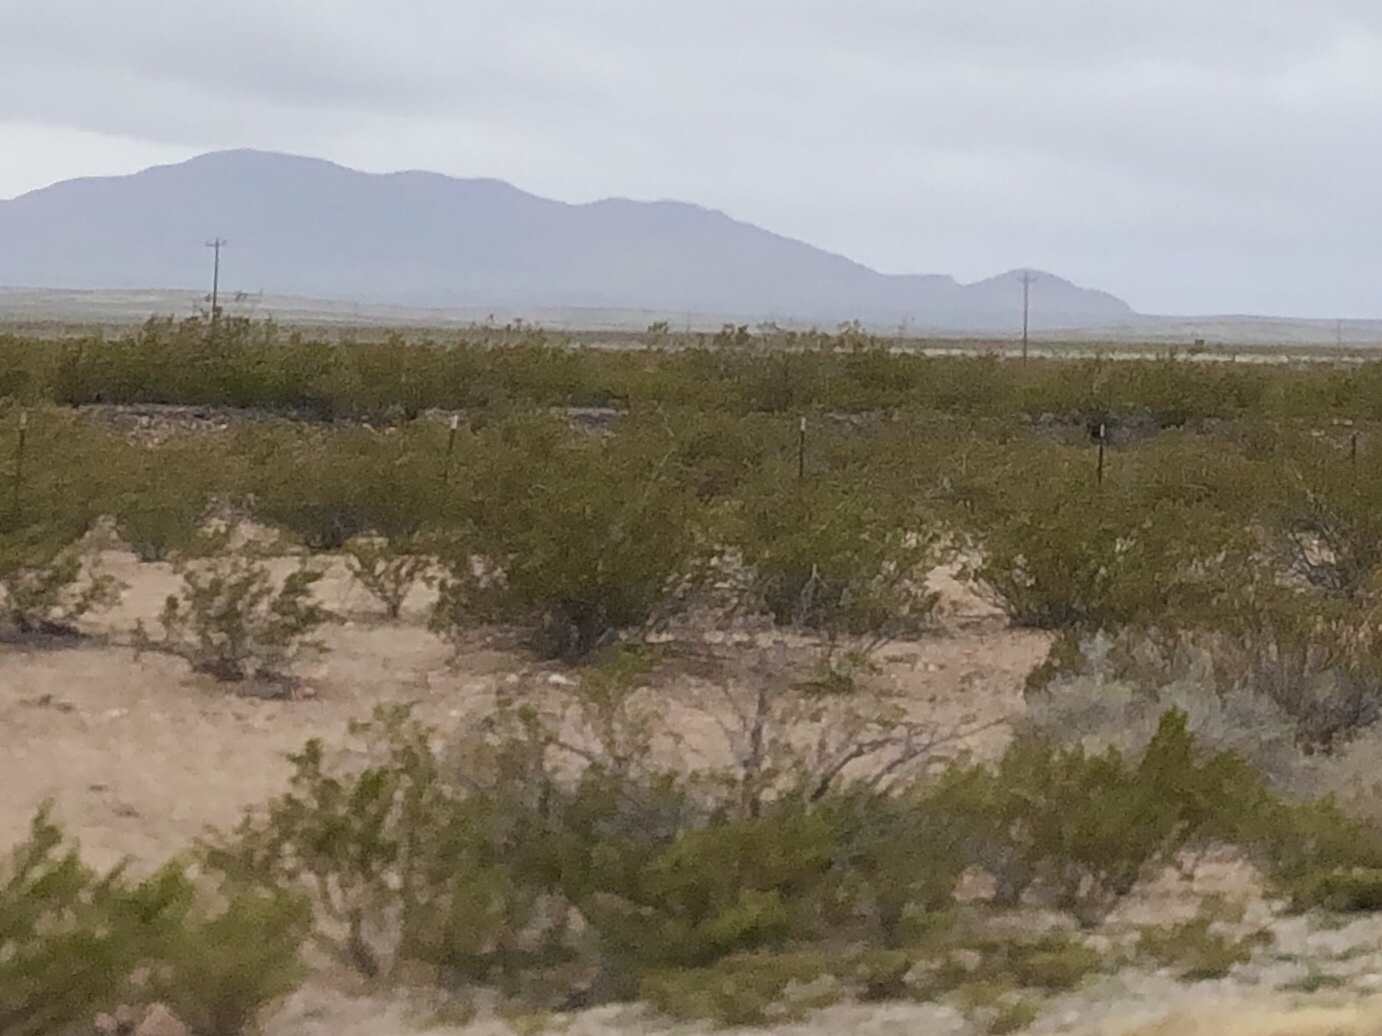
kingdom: Plantae
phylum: Tracheophyta
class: Magnoliopsida
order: Zygophyllales
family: Zygophyllaceae
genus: Larrea
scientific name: Larrea tridentata
